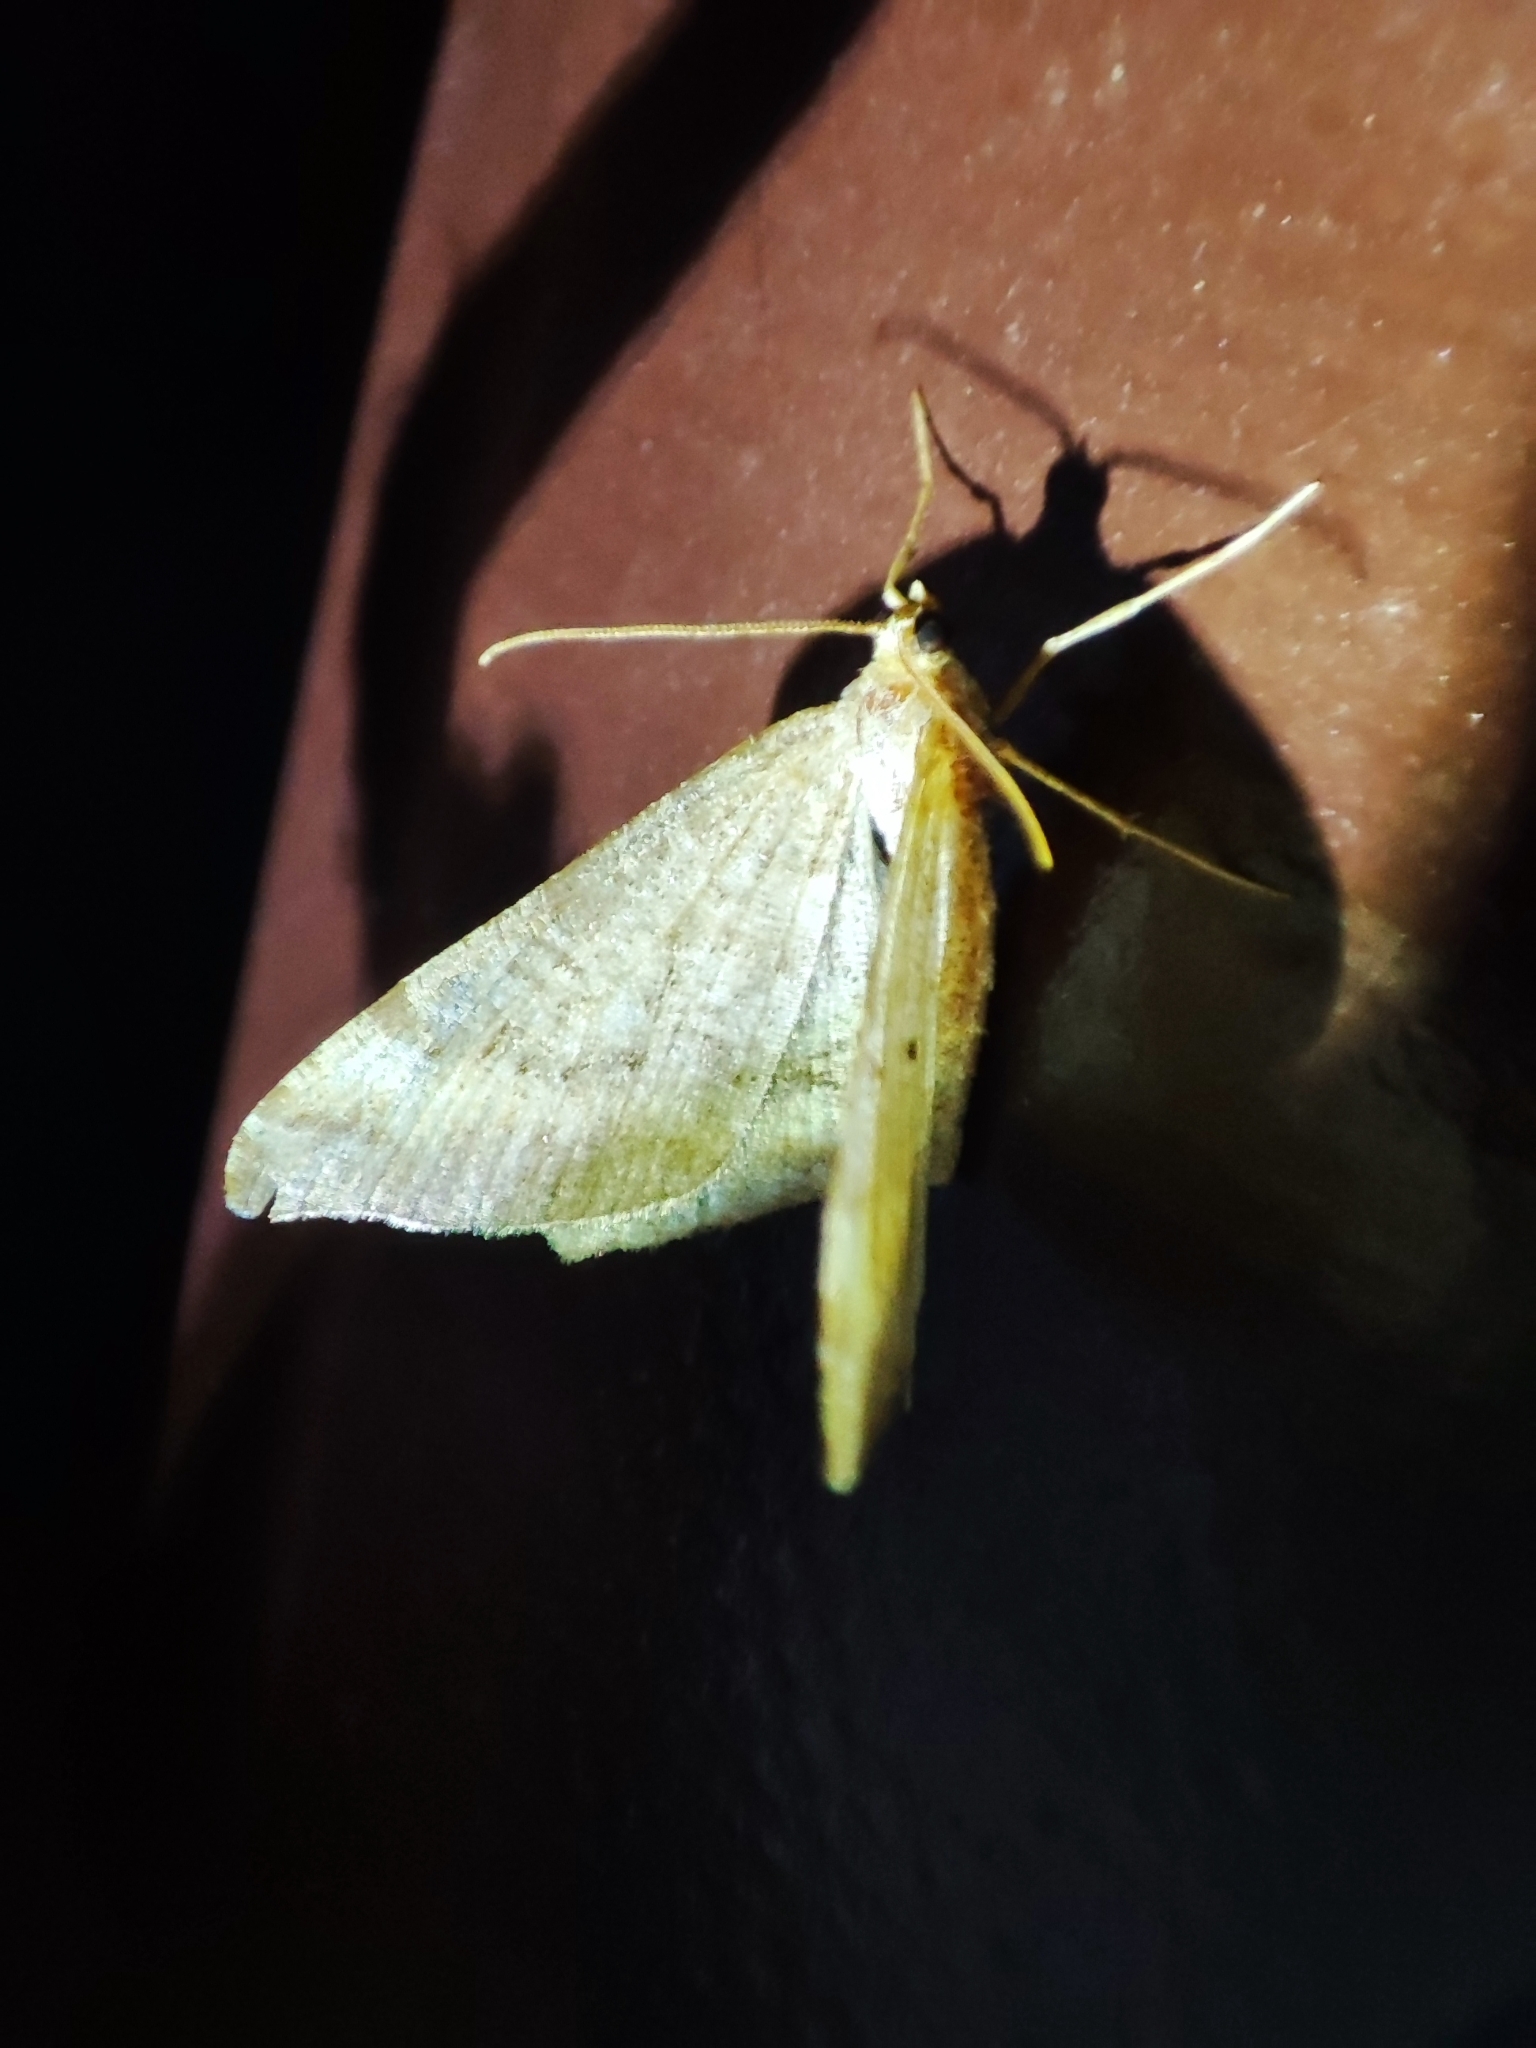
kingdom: Animalia
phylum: Arthropoda
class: Insecta
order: Lepidoptera
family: Geometridae
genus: Macaria
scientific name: Macaria liturata
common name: Tawny-barred angle
